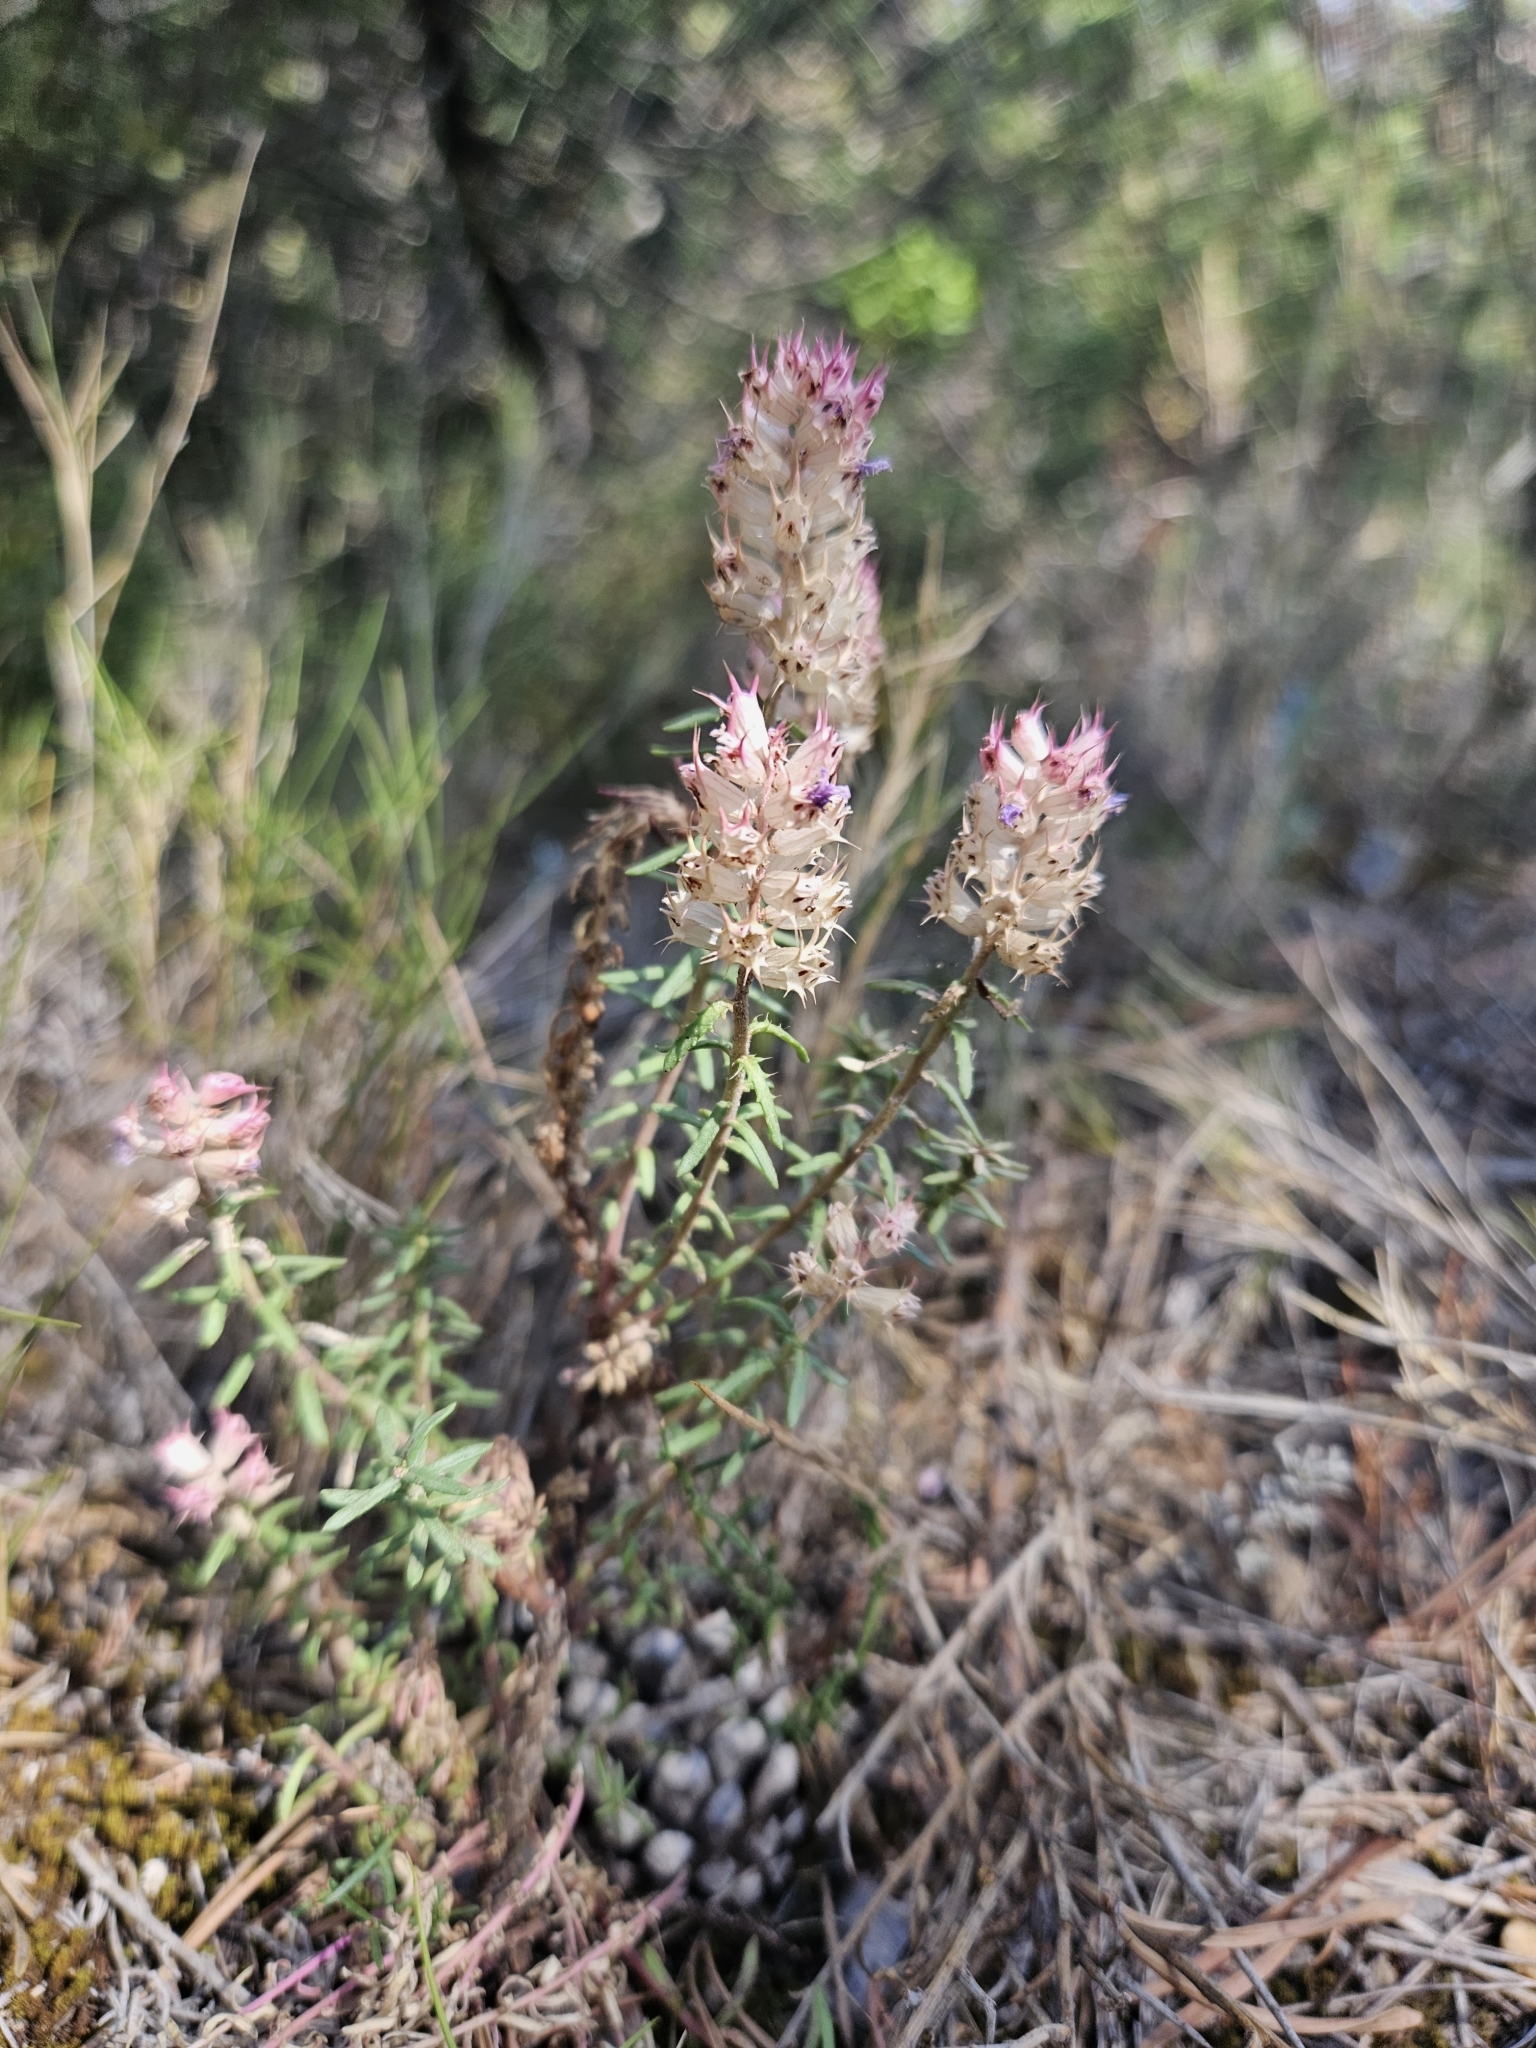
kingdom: Plantae
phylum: Tracheophyta
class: Magnoliopsida
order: Ericales
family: Primulaceae
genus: Coris
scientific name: Coris monspeliensis
